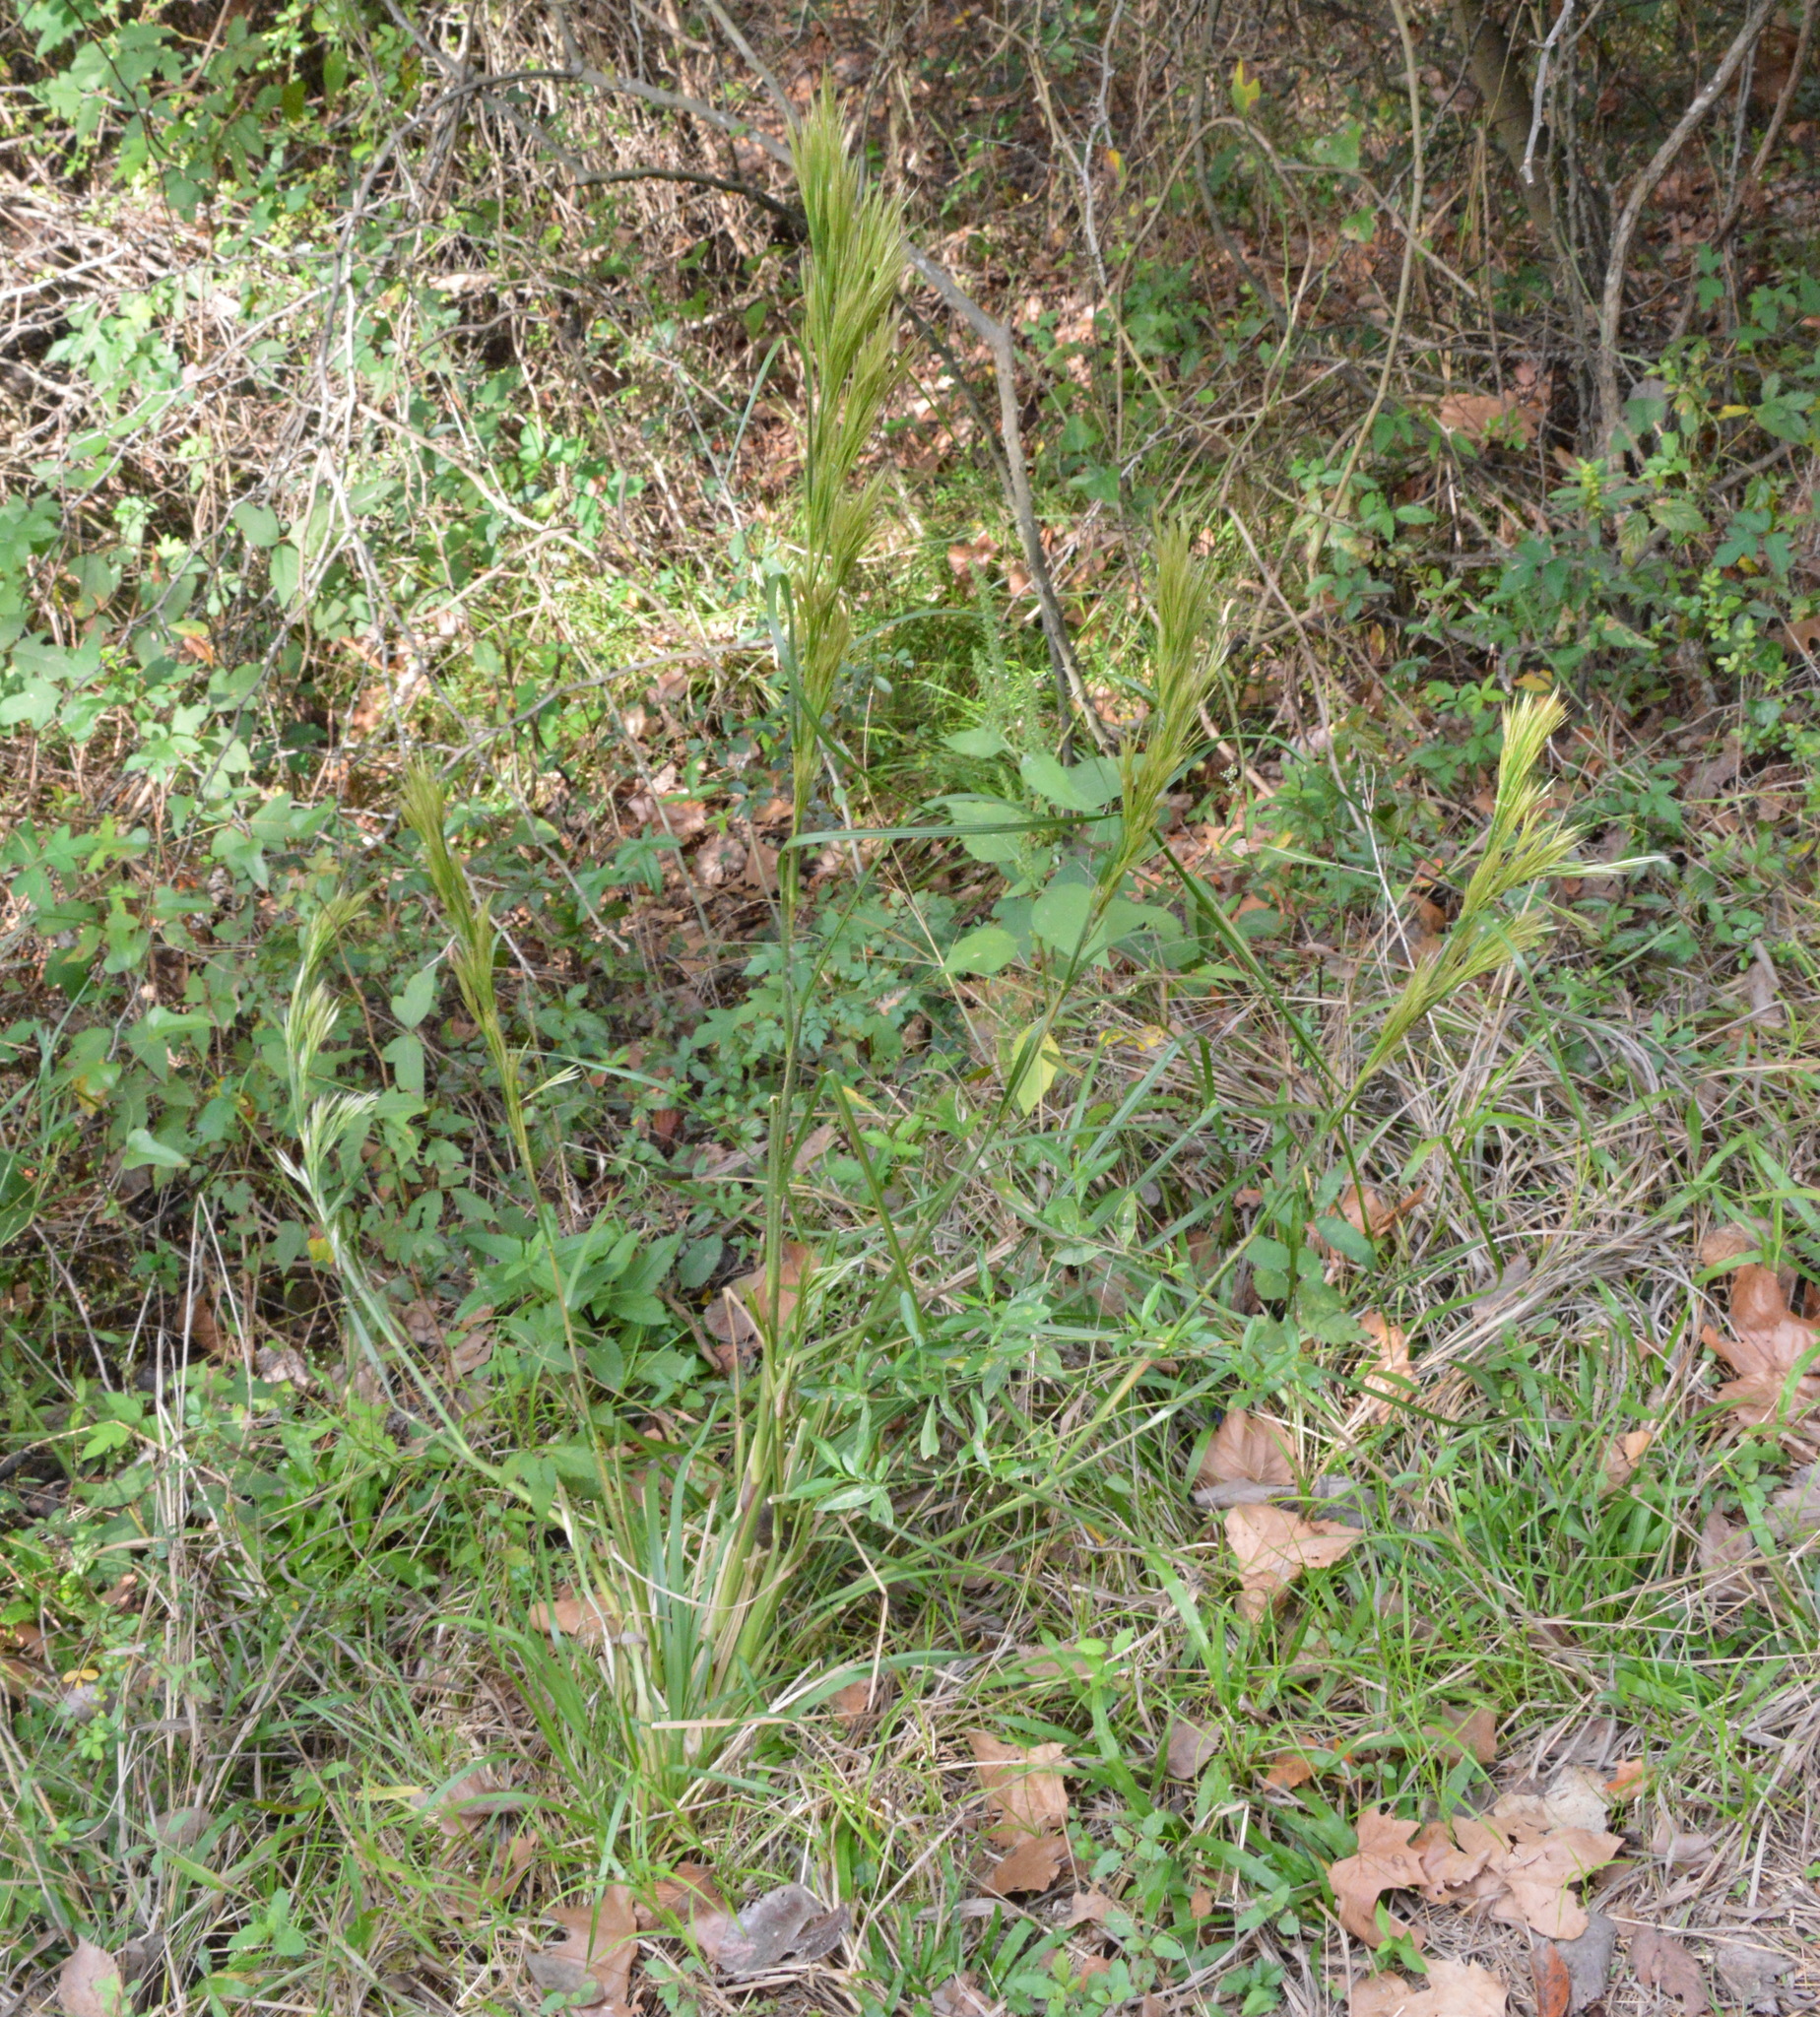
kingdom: Plantae
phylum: Tracheophyta
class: Liliopsida
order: Poales
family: Poaceae
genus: Andropogon
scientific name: Andropogon tenuispatheus
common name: Bushy bluestem
